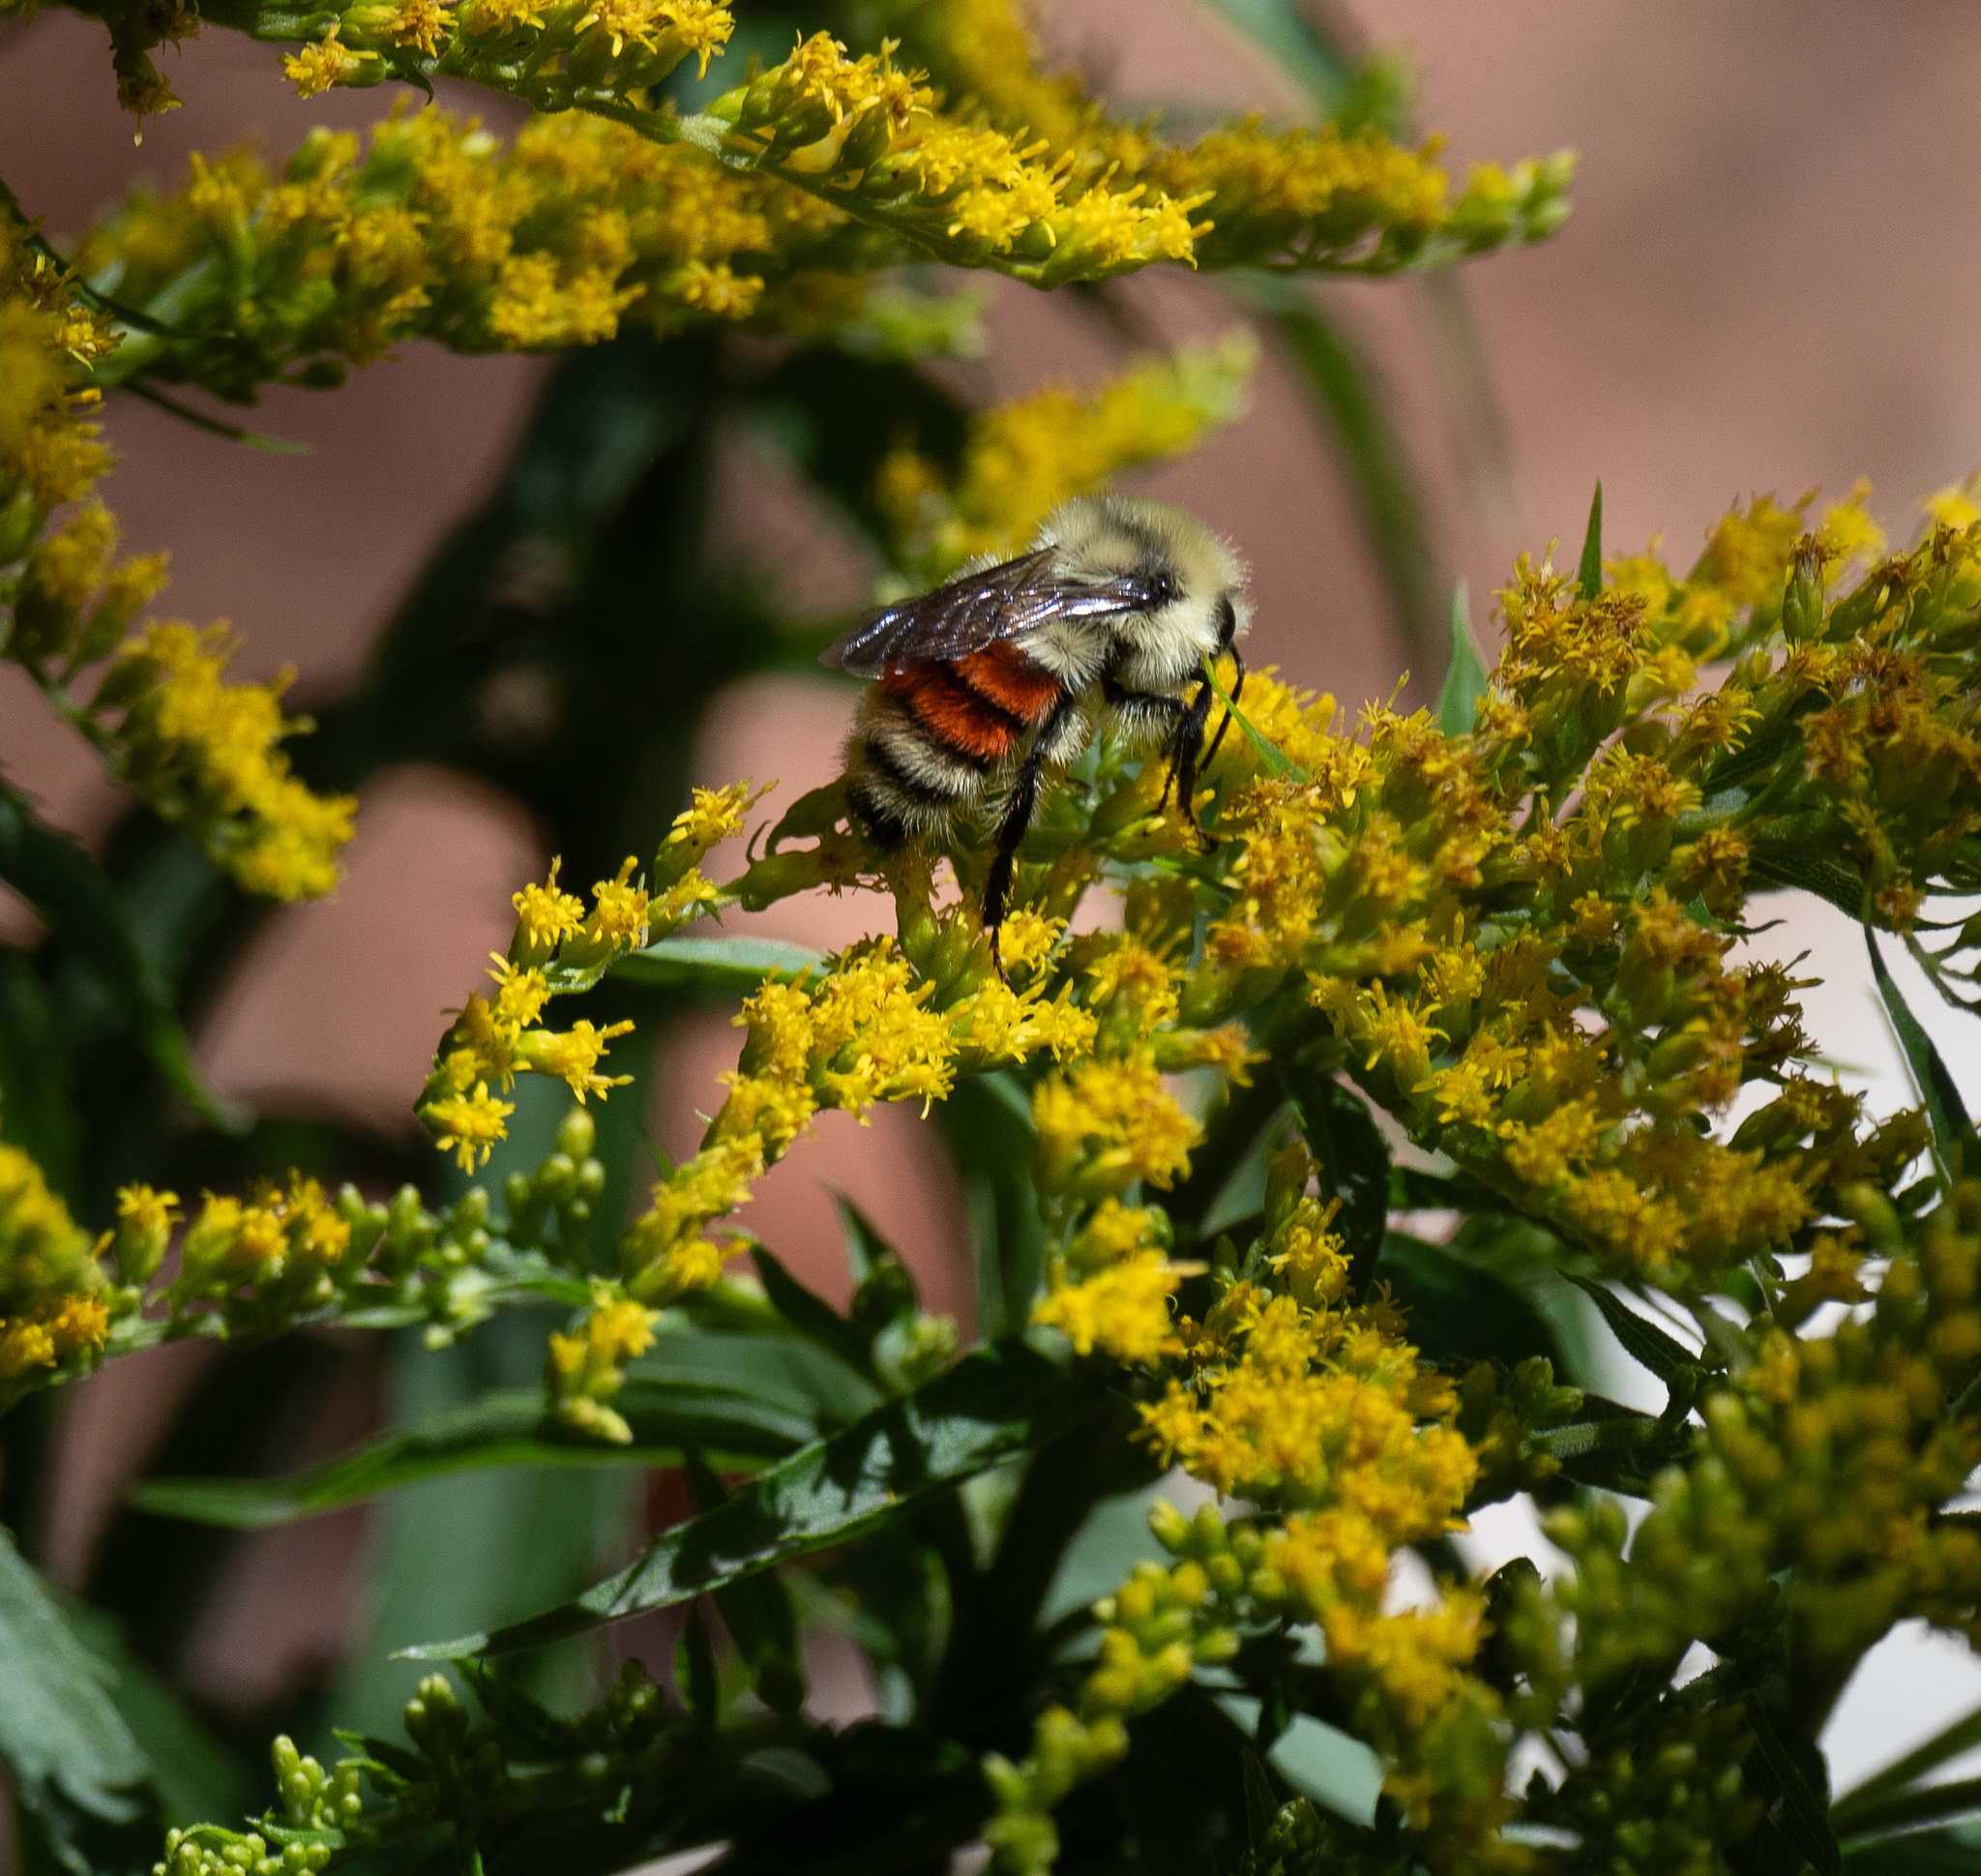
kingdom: Animalia
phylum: Arthropoda
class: Insecta
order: Hymenoptera
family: Apidae
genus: Bombus
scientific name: Bombus huntii
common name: Hunt bumble bee
